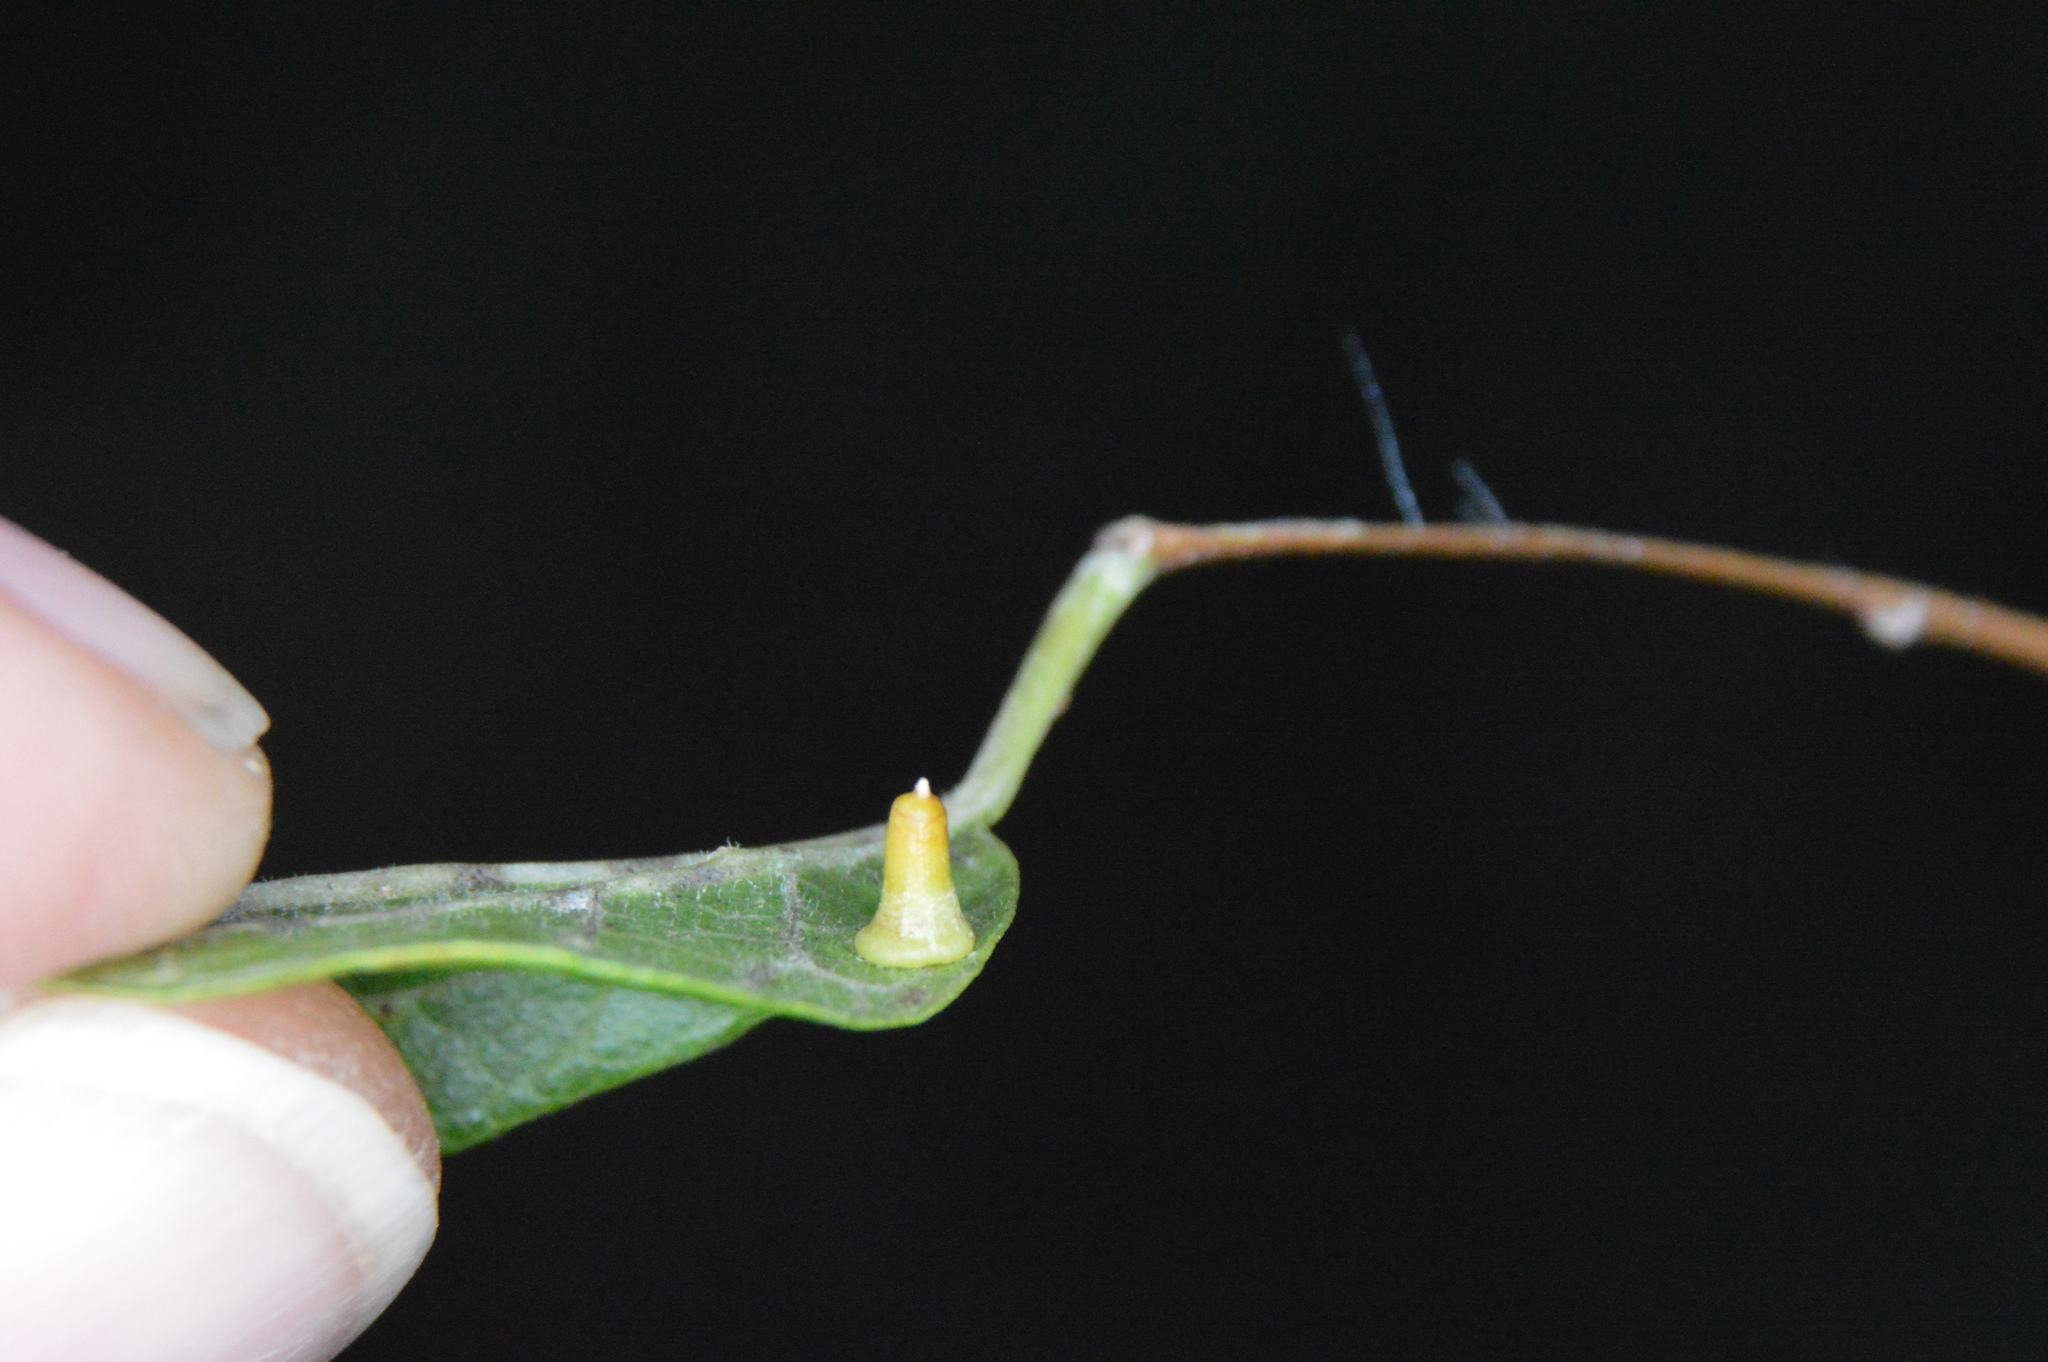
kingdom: Animalia
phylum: Arthropoda
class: Insecta
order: Diptera
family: Cecidomyiidae
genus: Celticecis
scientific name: Celticecis aciculata
